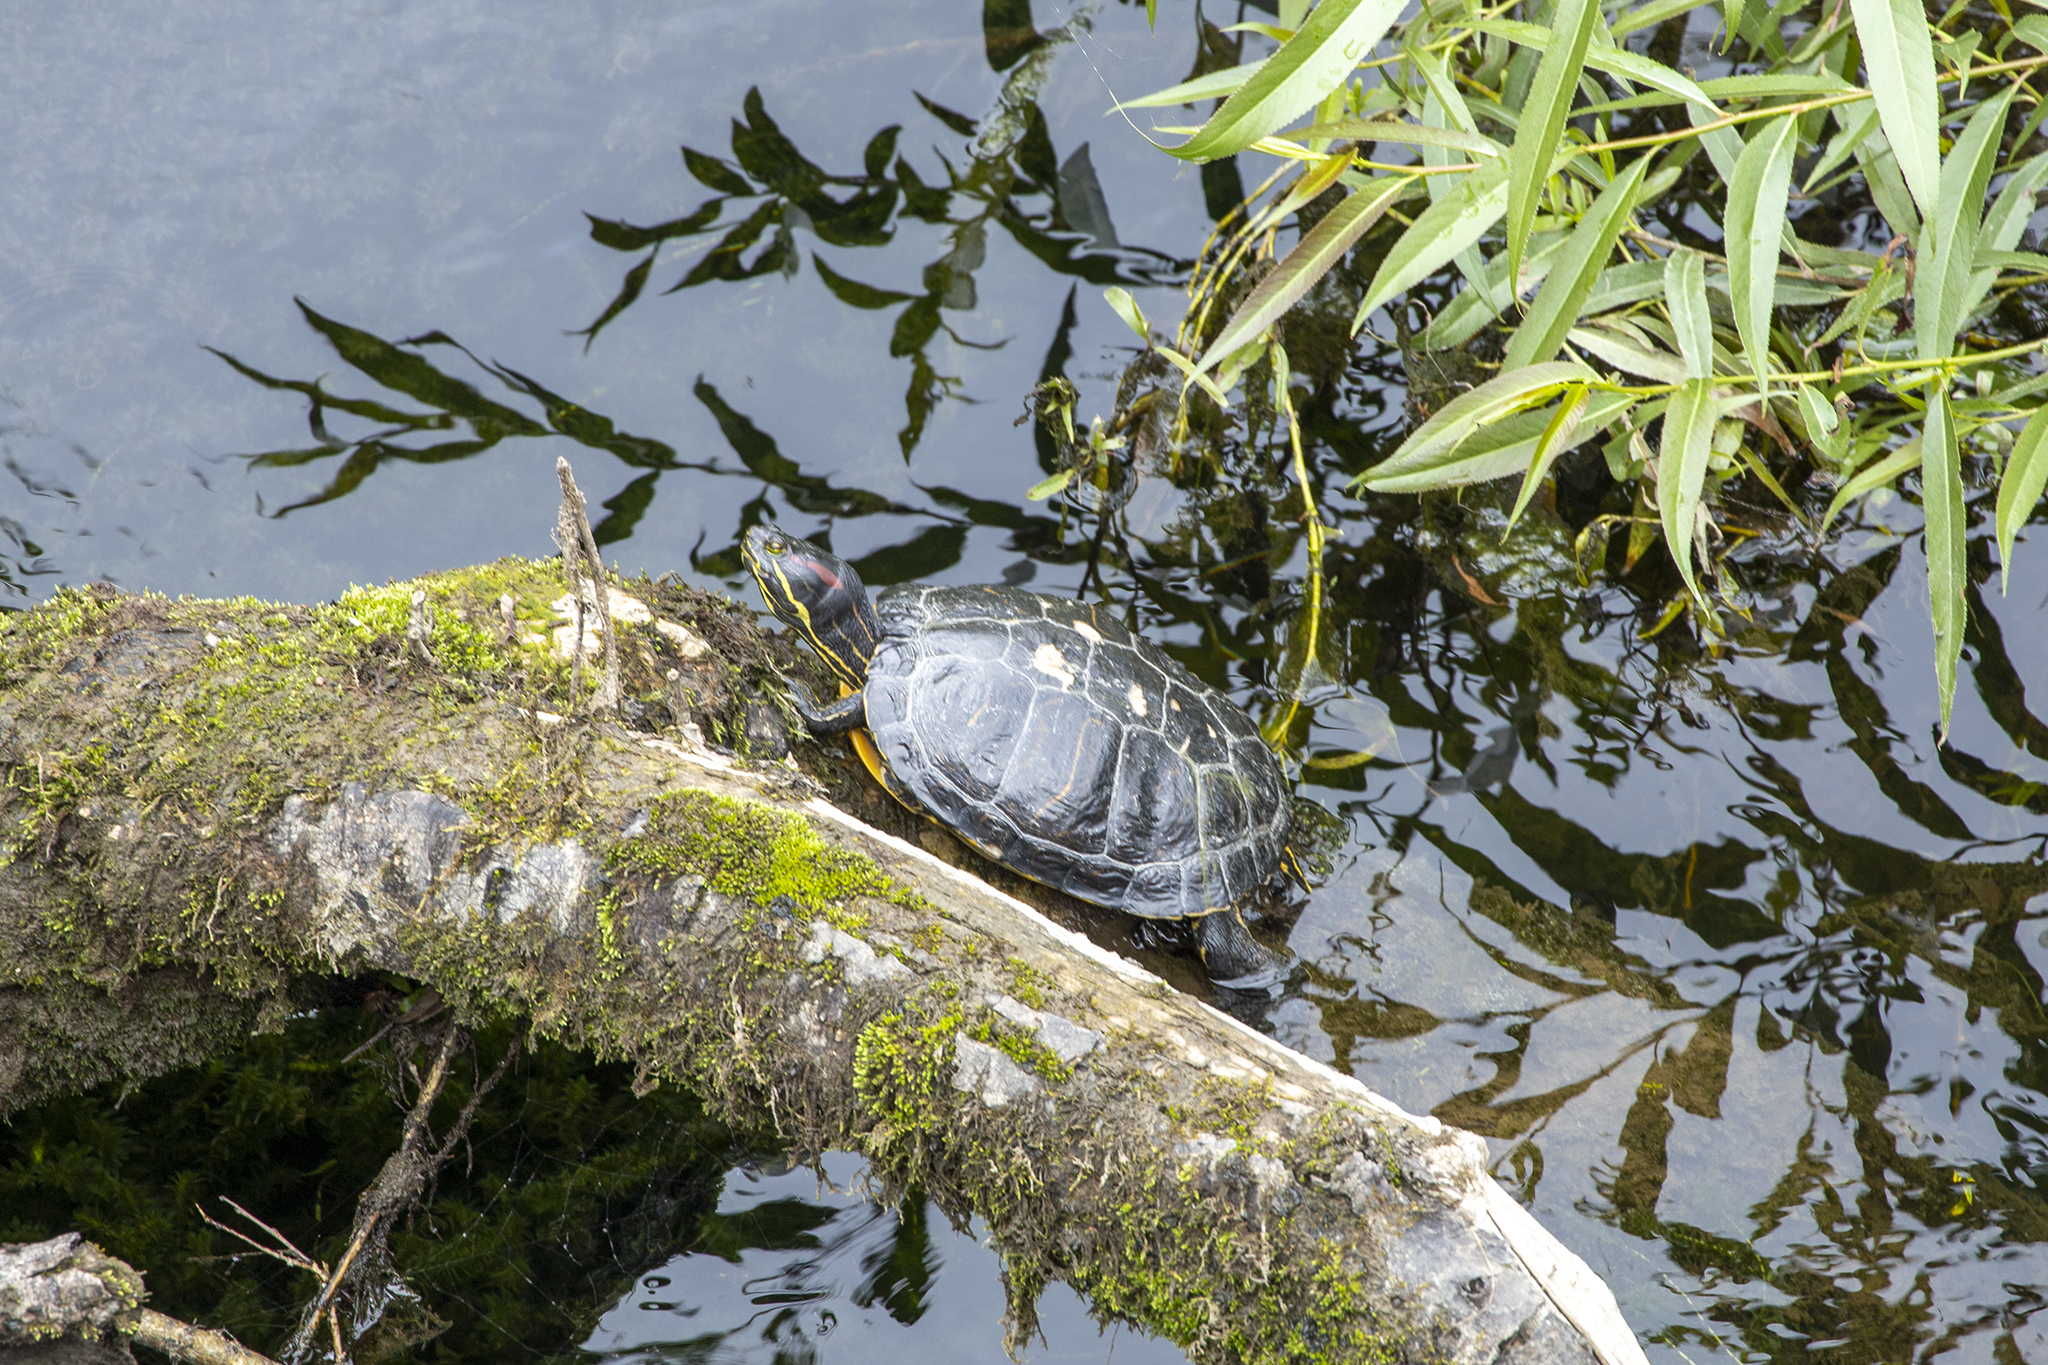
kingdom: Animalia
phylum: Chordata
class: Testudines
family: Emydidae
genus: Trachemys
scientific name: Trachemys scripta
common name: Slider
